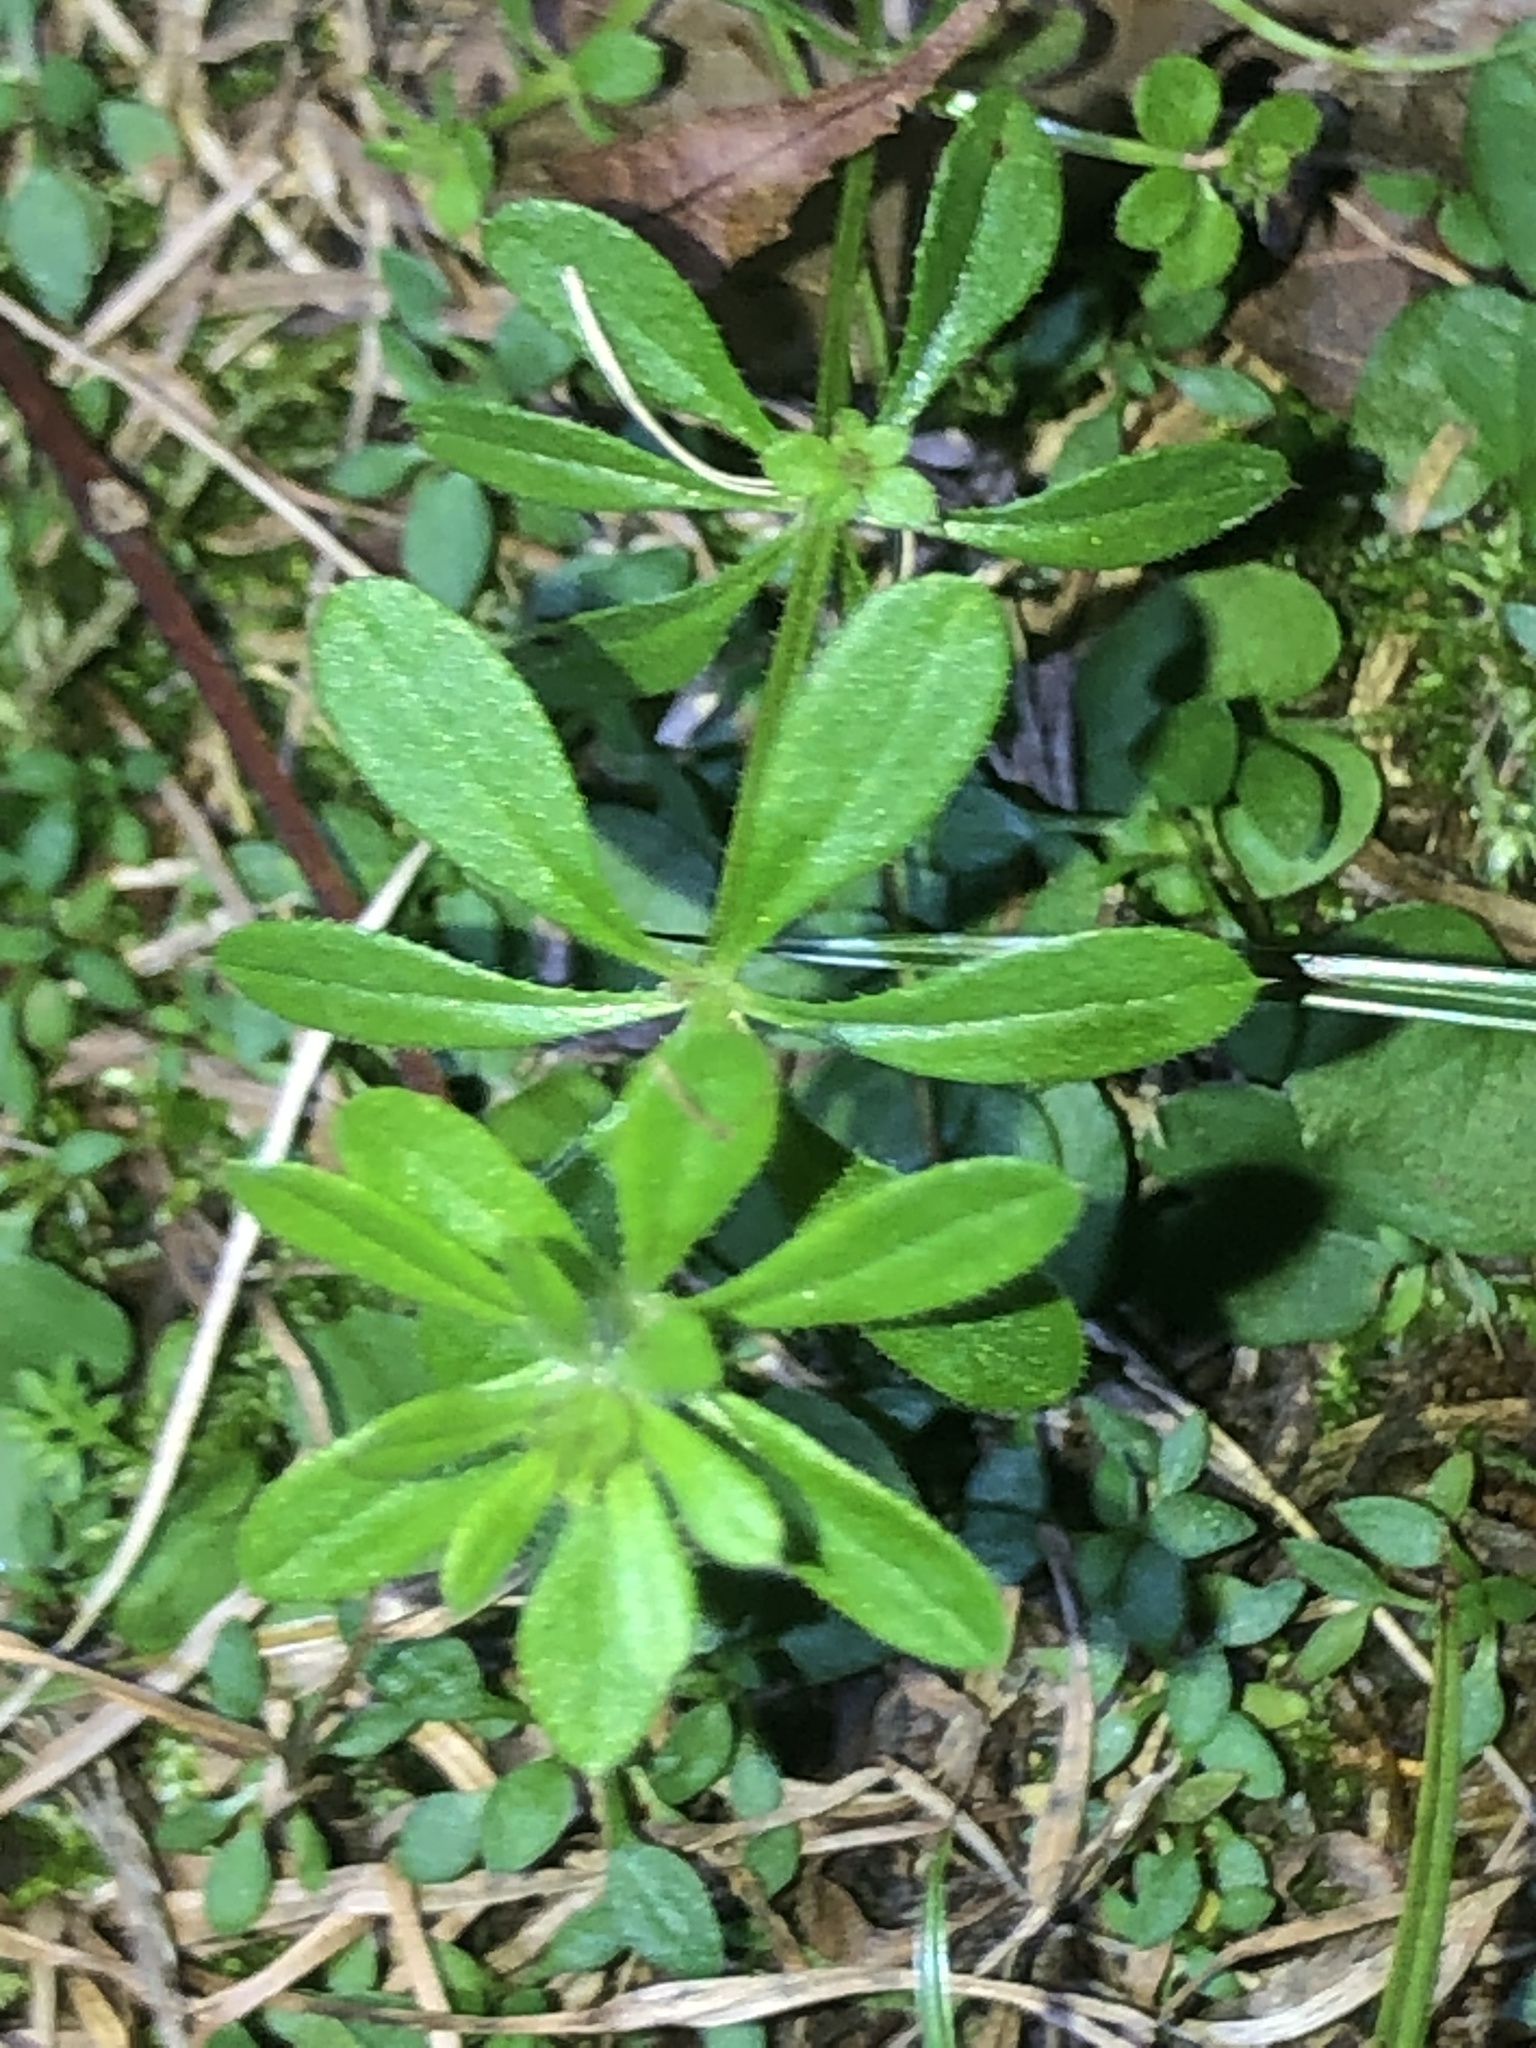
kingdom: Plantae
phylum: Tracheophyta
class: Magnoliopsida
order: Gentianales
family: Rubiaceae
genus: Galium
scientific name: Galium aparine
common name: Cleavers
